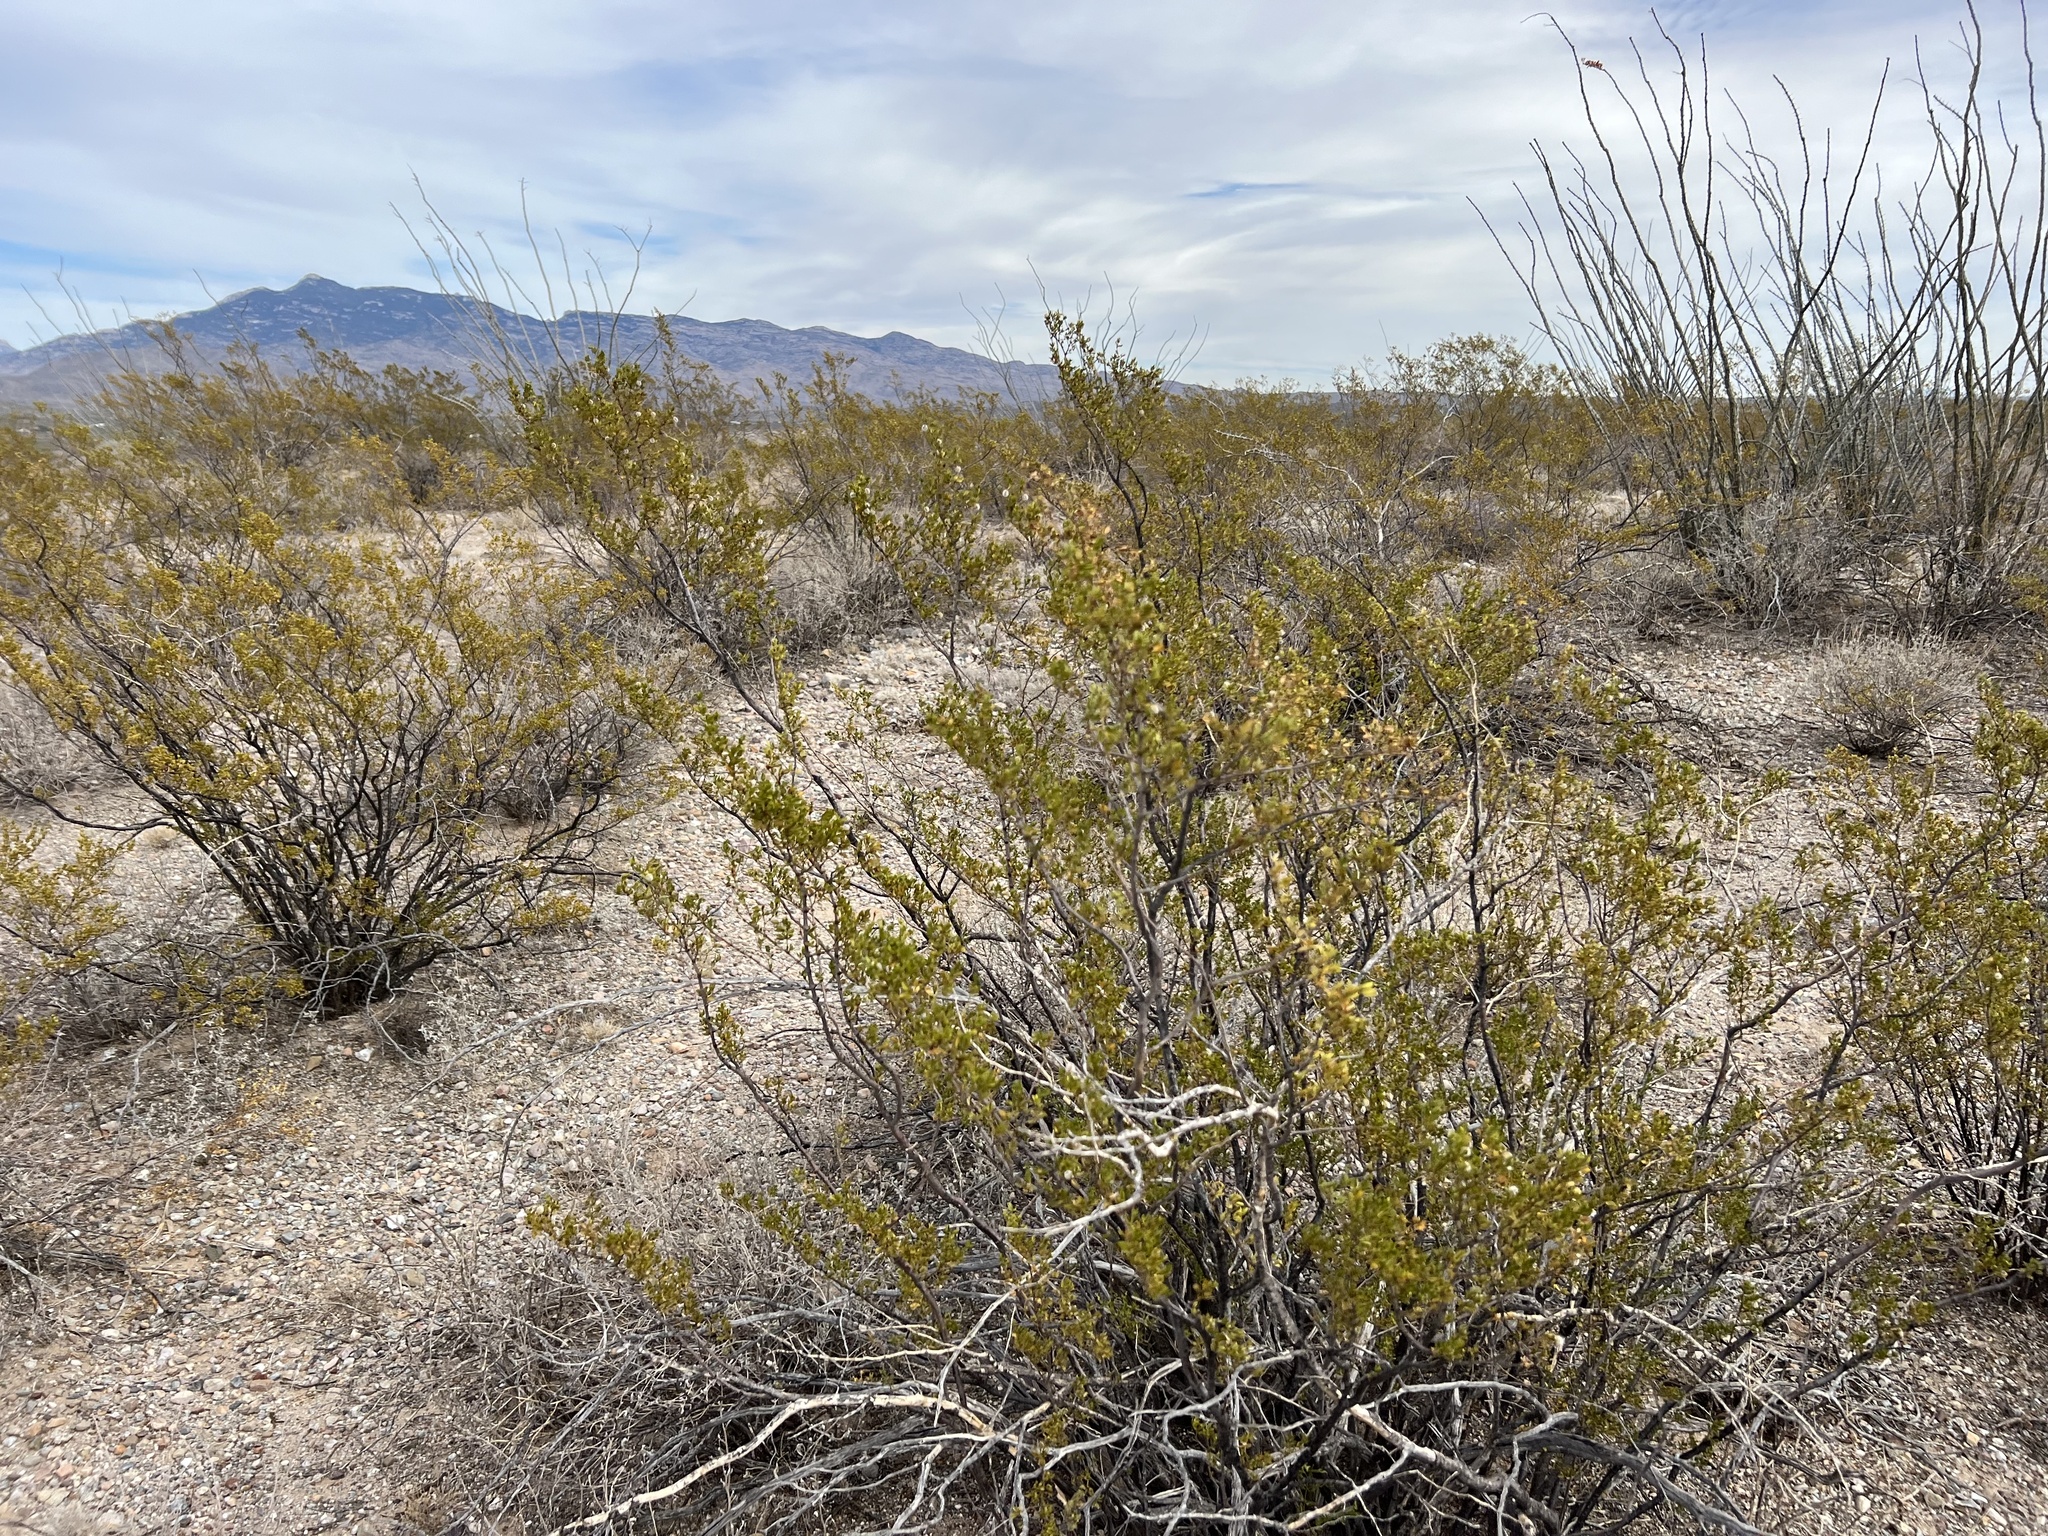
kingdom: Plantae
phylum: Tracheophyta
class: Magnoliopsida
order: Zygophyllales
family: Zygophyllaceae
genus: Larrea
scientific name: Larrea tridentata
